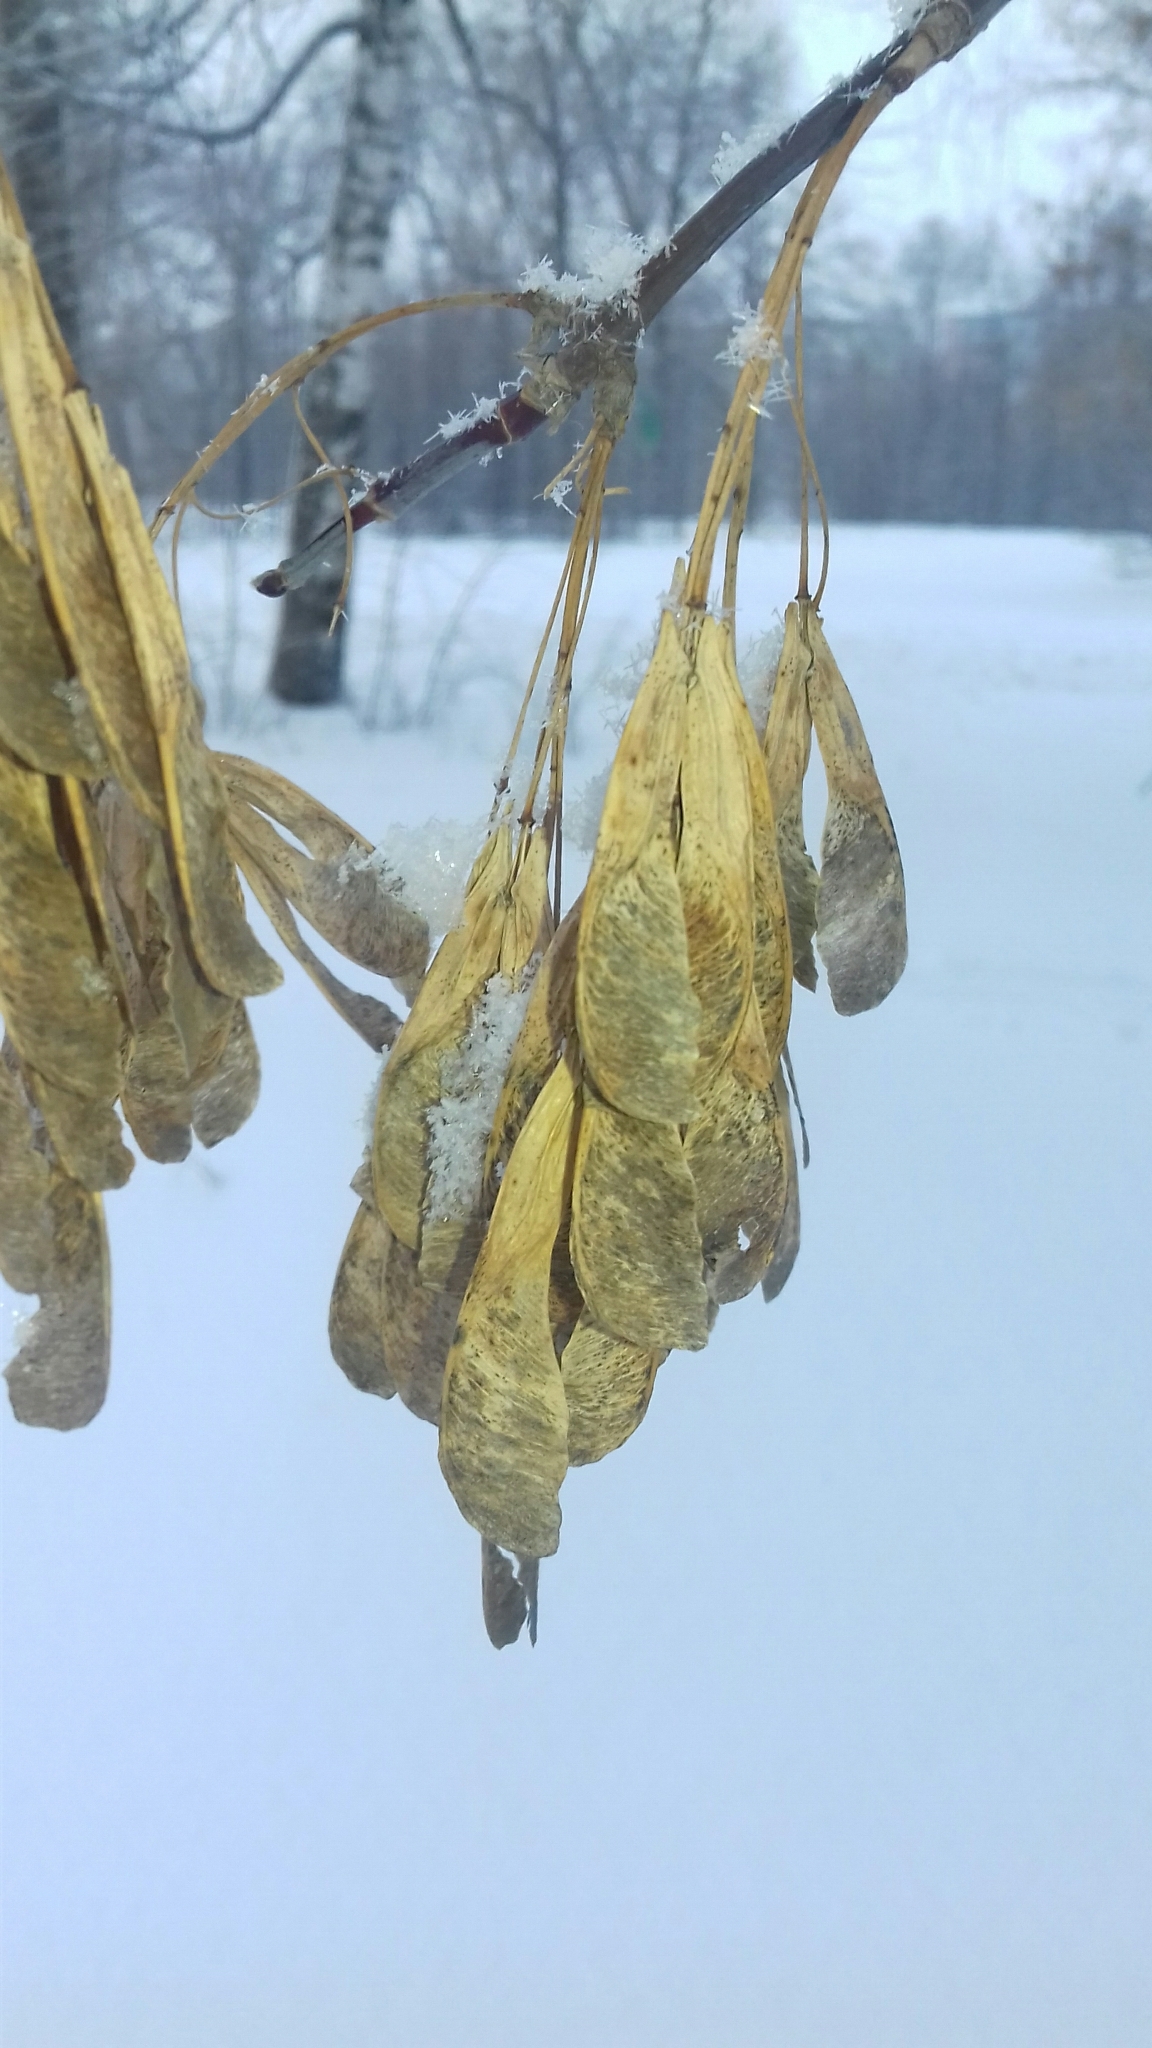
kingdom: Plantae
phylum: Tracheophyta
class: Magnoliopsida
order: Sapindales
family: Sapindaceae
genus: Acer
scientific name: Acer negundo
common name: Ashleaf maple
